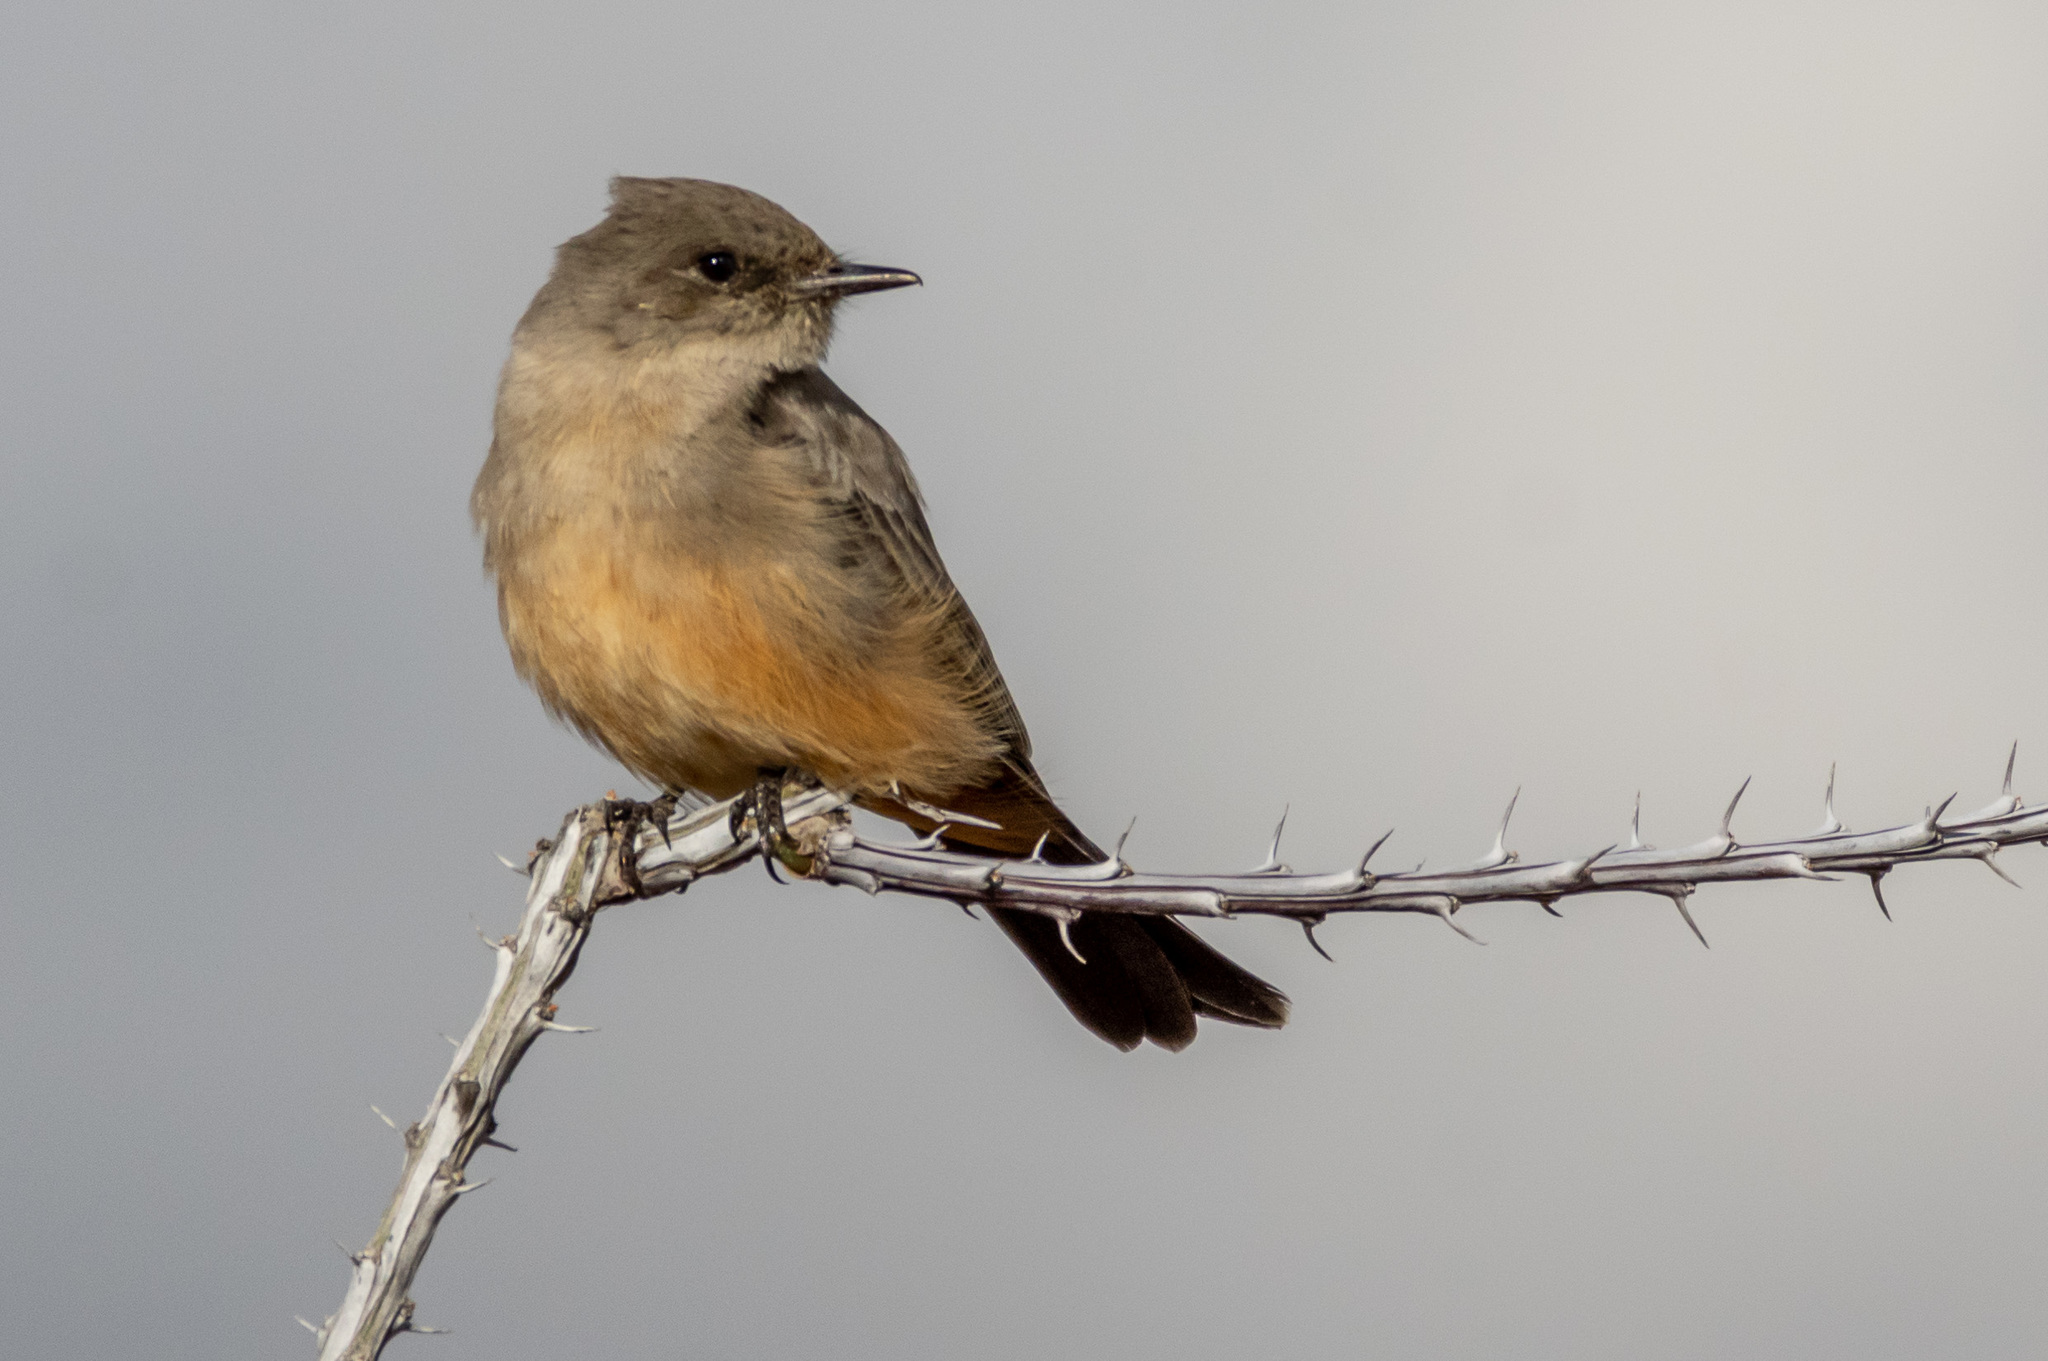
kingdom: Animalia
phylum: Chordata
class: Aves
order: Passeriformes
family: Tyrannidae
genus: Sayornis
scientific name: Sayornis saya
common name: Say's phoebe
